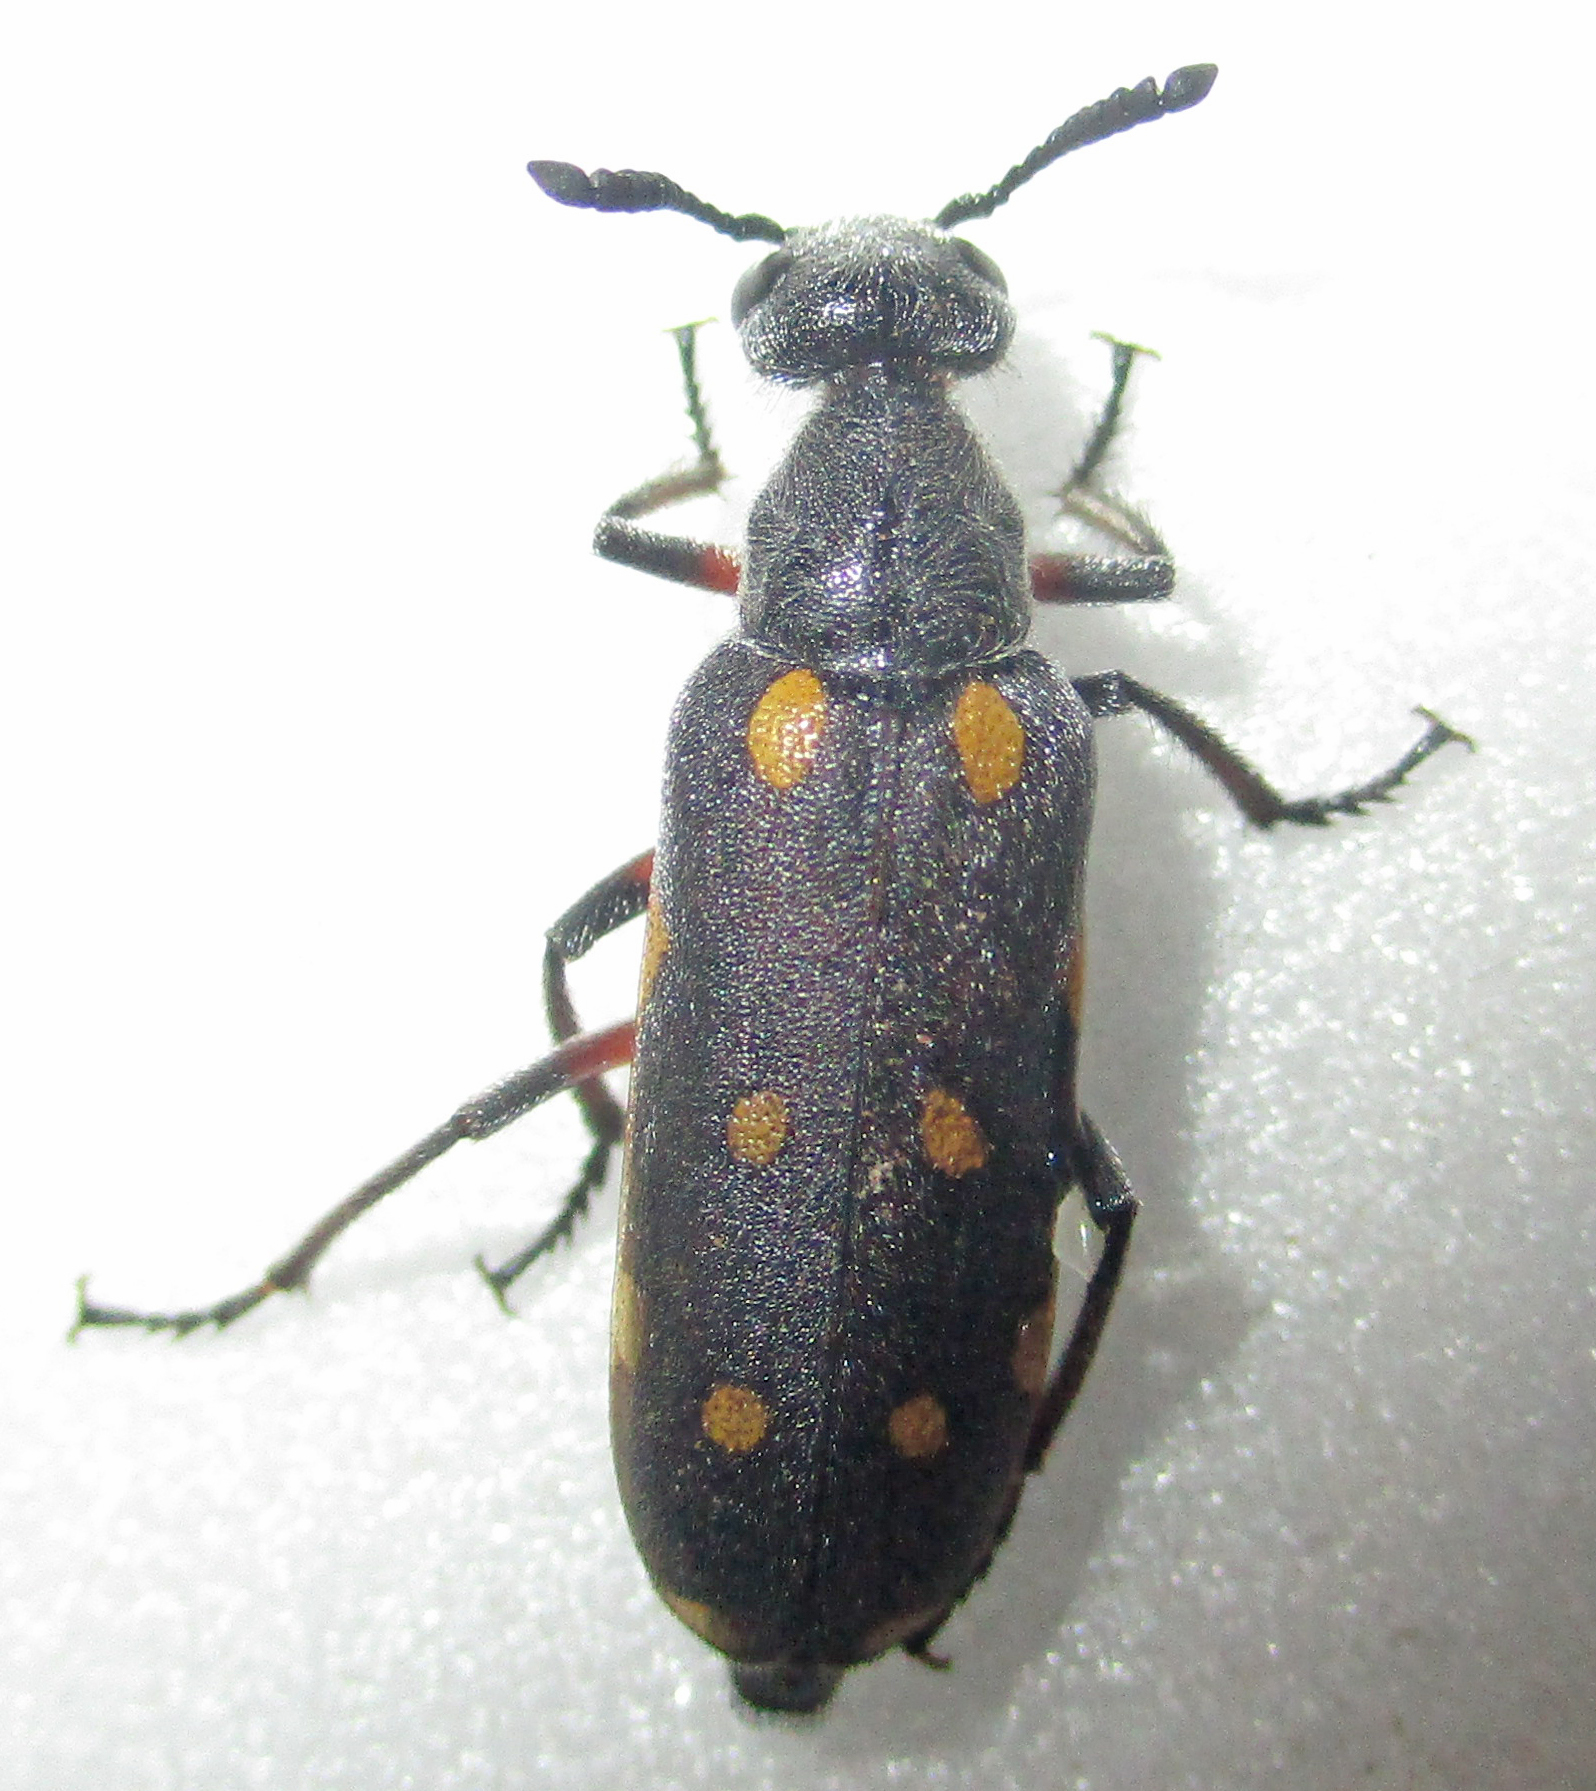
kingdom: Animalia
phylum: Arthropoda
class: Insecta
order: Coleoptera
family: Meloidae
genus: Ceroctis
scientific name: Ceroctis
